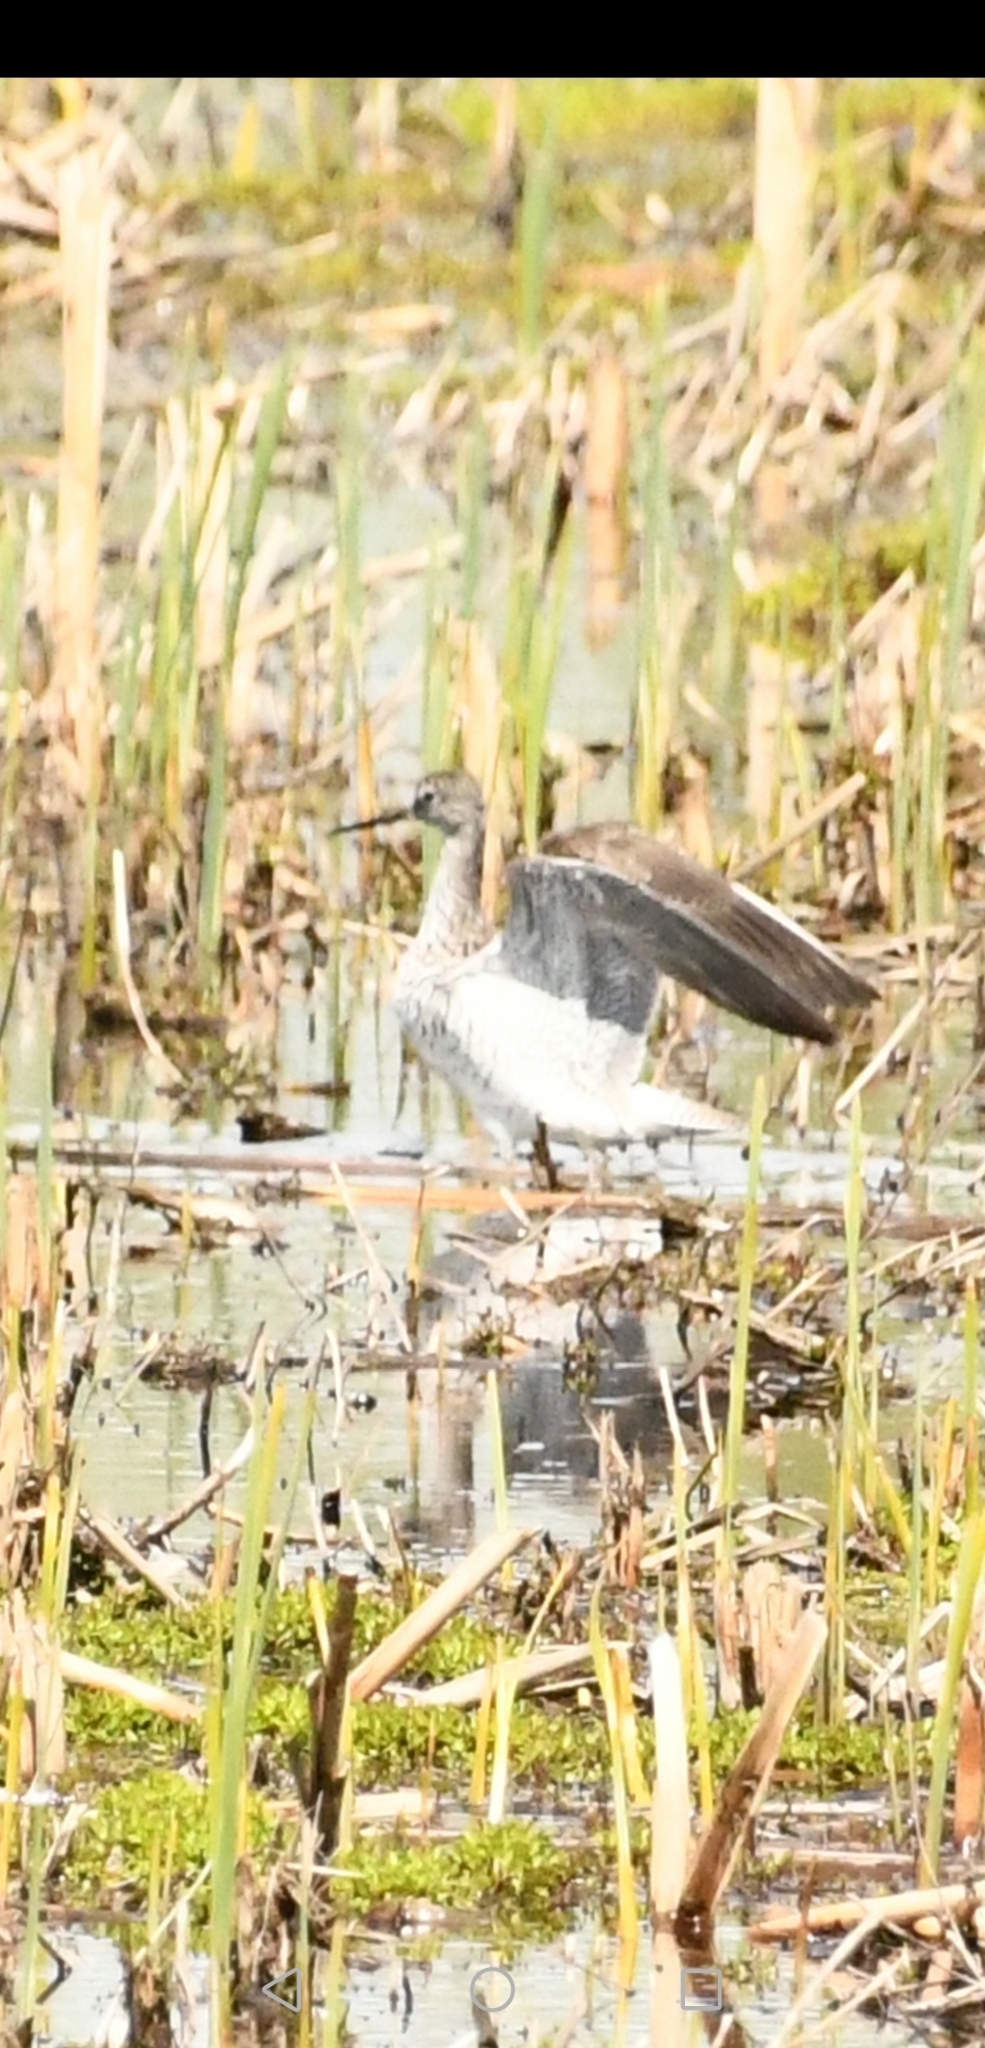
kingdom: Animalia
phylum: Chordata
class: Aves
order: Charadriiformes
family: Scolopacidae
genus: Tringa
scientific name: Tringa melanoleuca
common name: Greater yellowlegs
